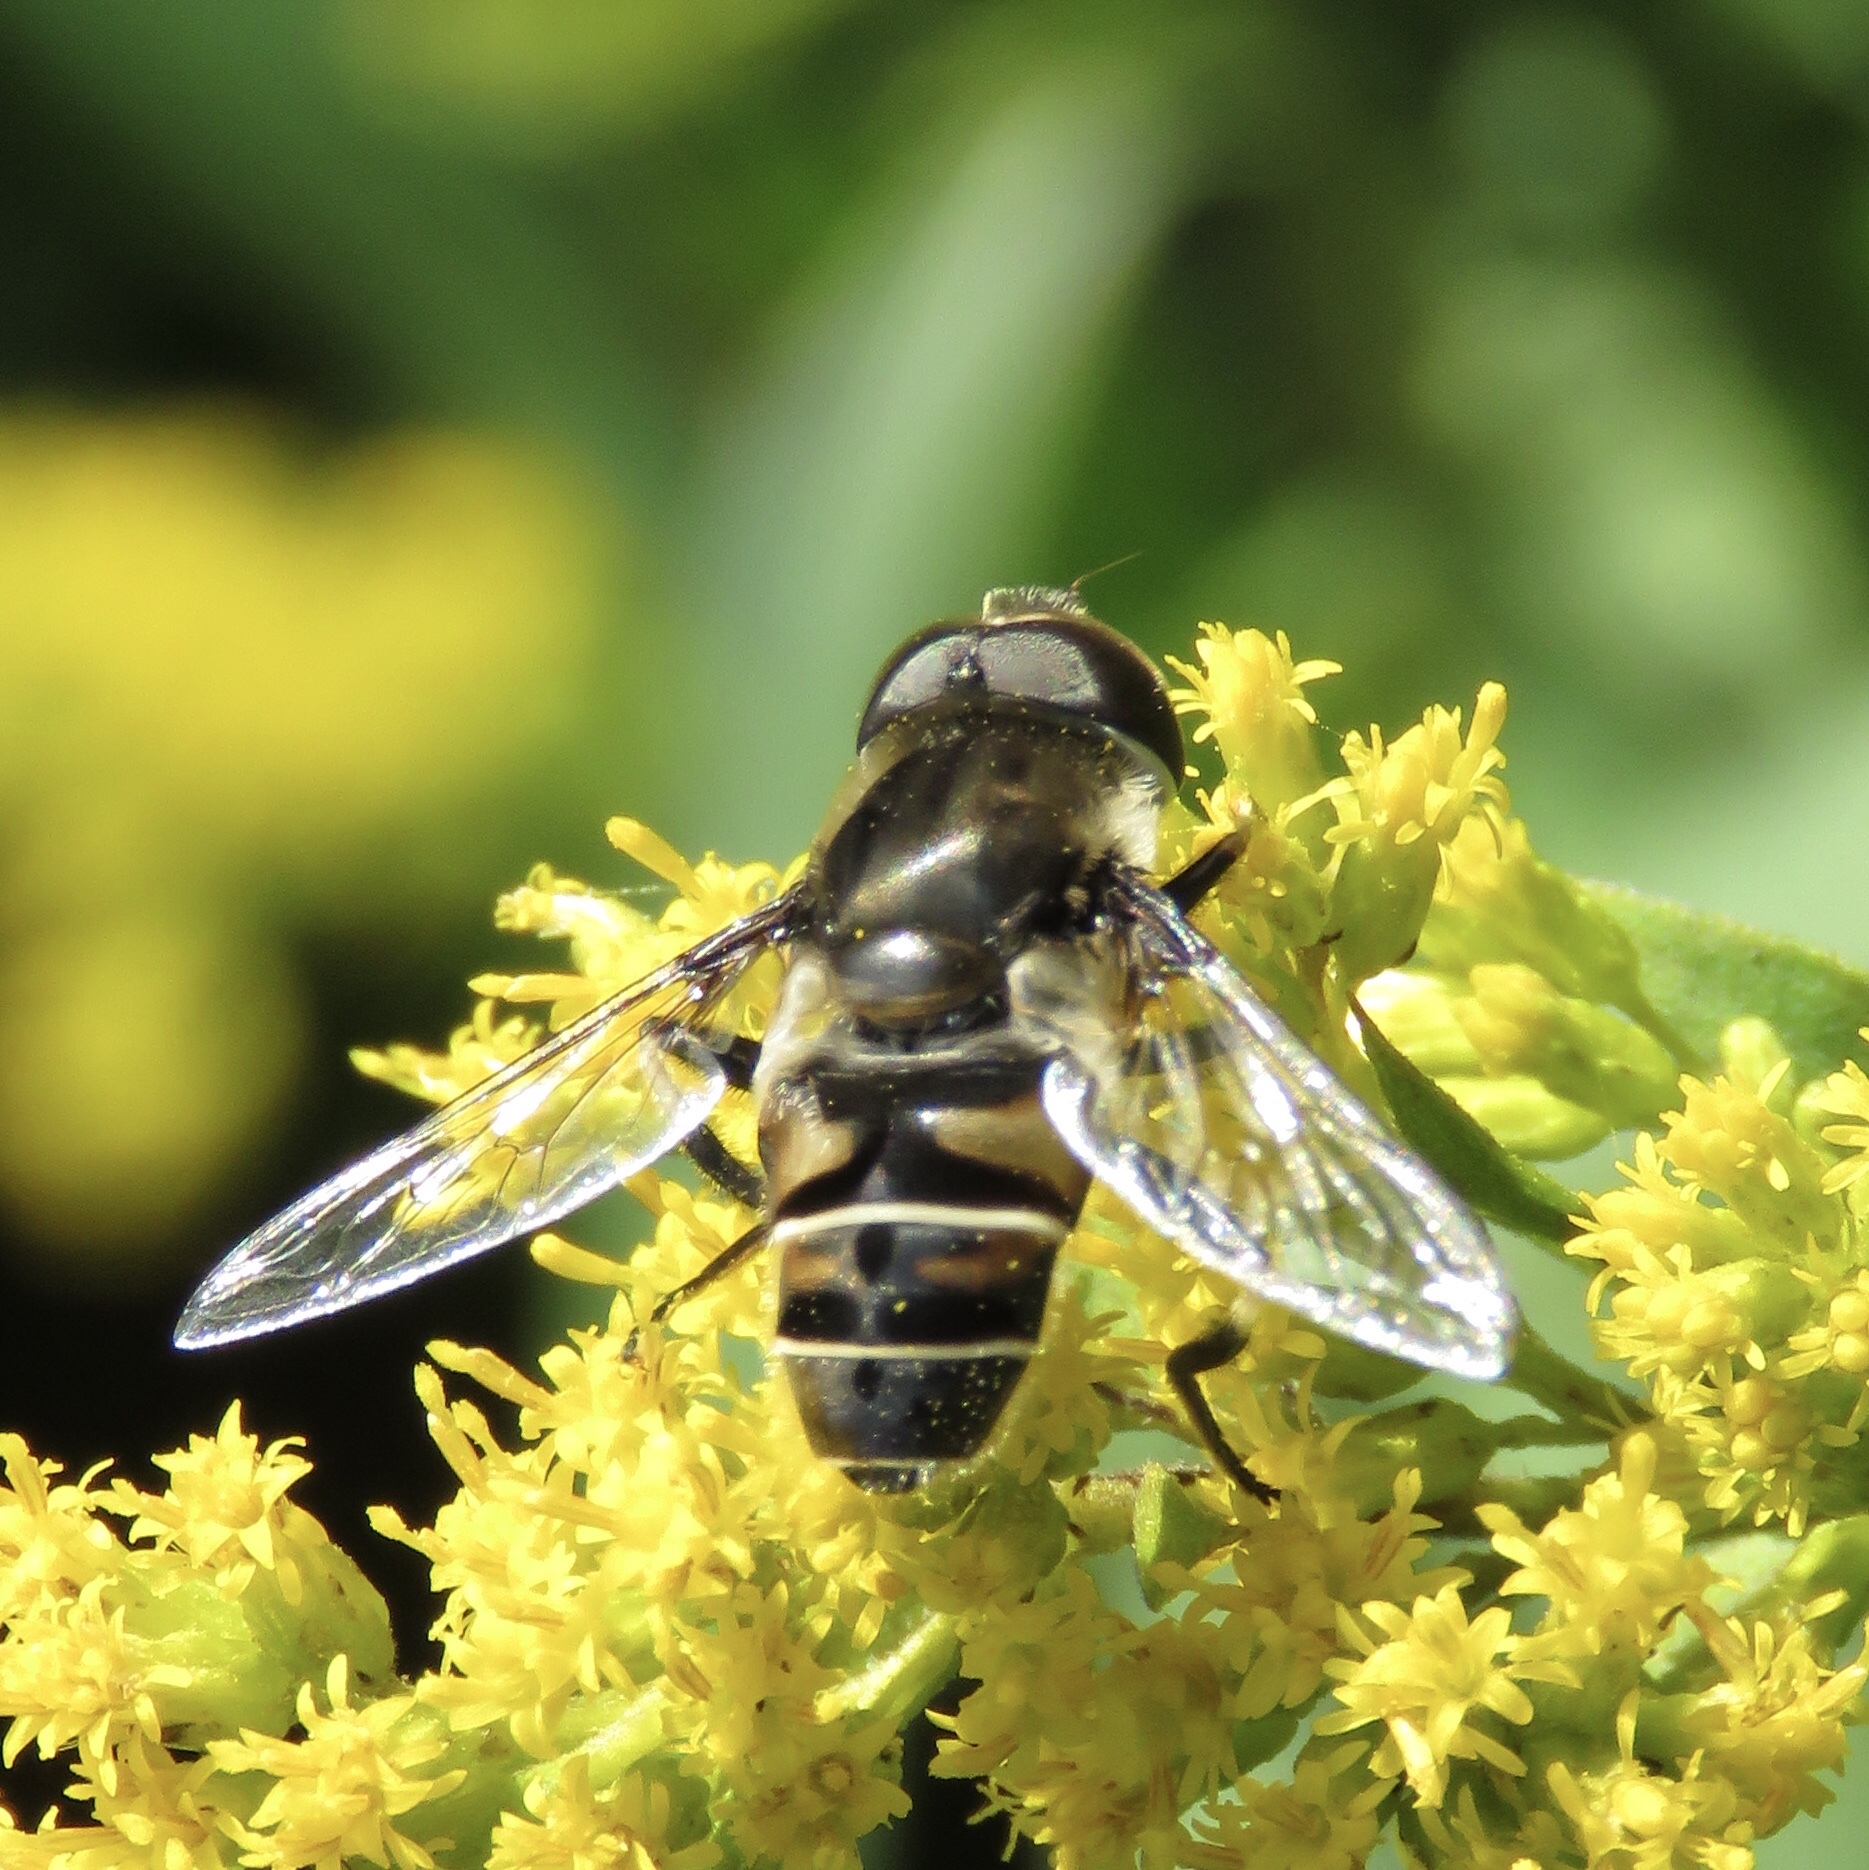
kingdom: Animalia
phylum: Arthropoda
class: Insecta
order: Diptera
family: Syrphidae
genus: Eristalis
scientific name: Eristalis dimidiata
